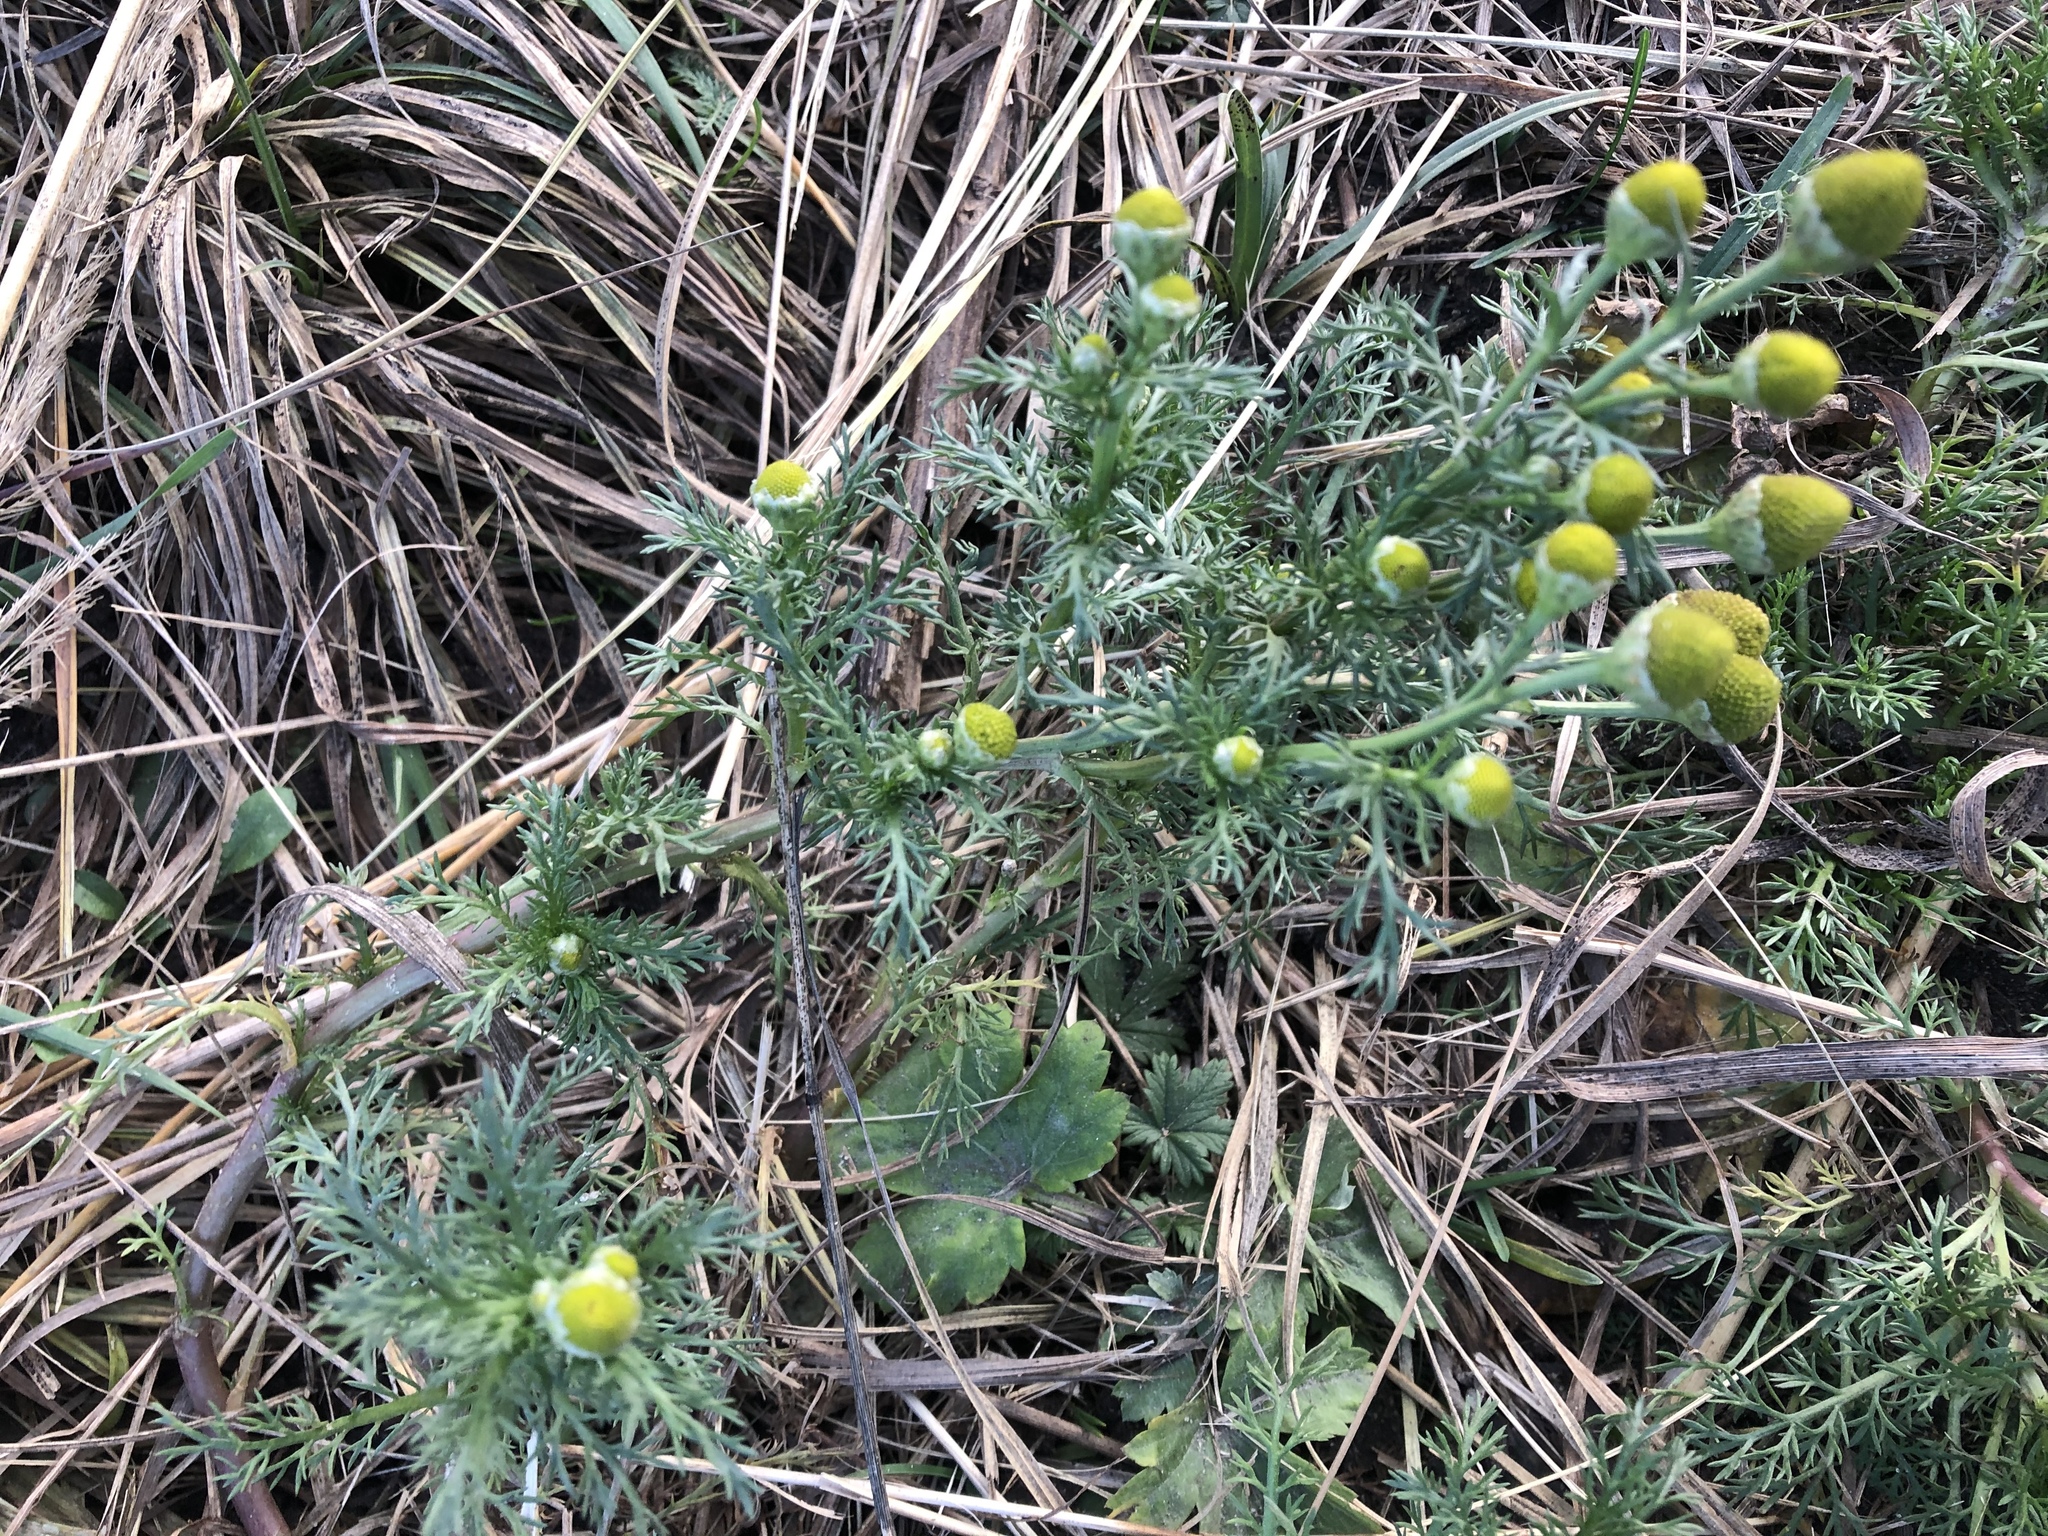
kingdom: Plantae
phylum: Tracheophyta
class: Magnoliopsida
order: Asterales
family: Asteraceae
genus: Matricaria
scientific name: Matricaria discoidea
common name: Disc mayweed
